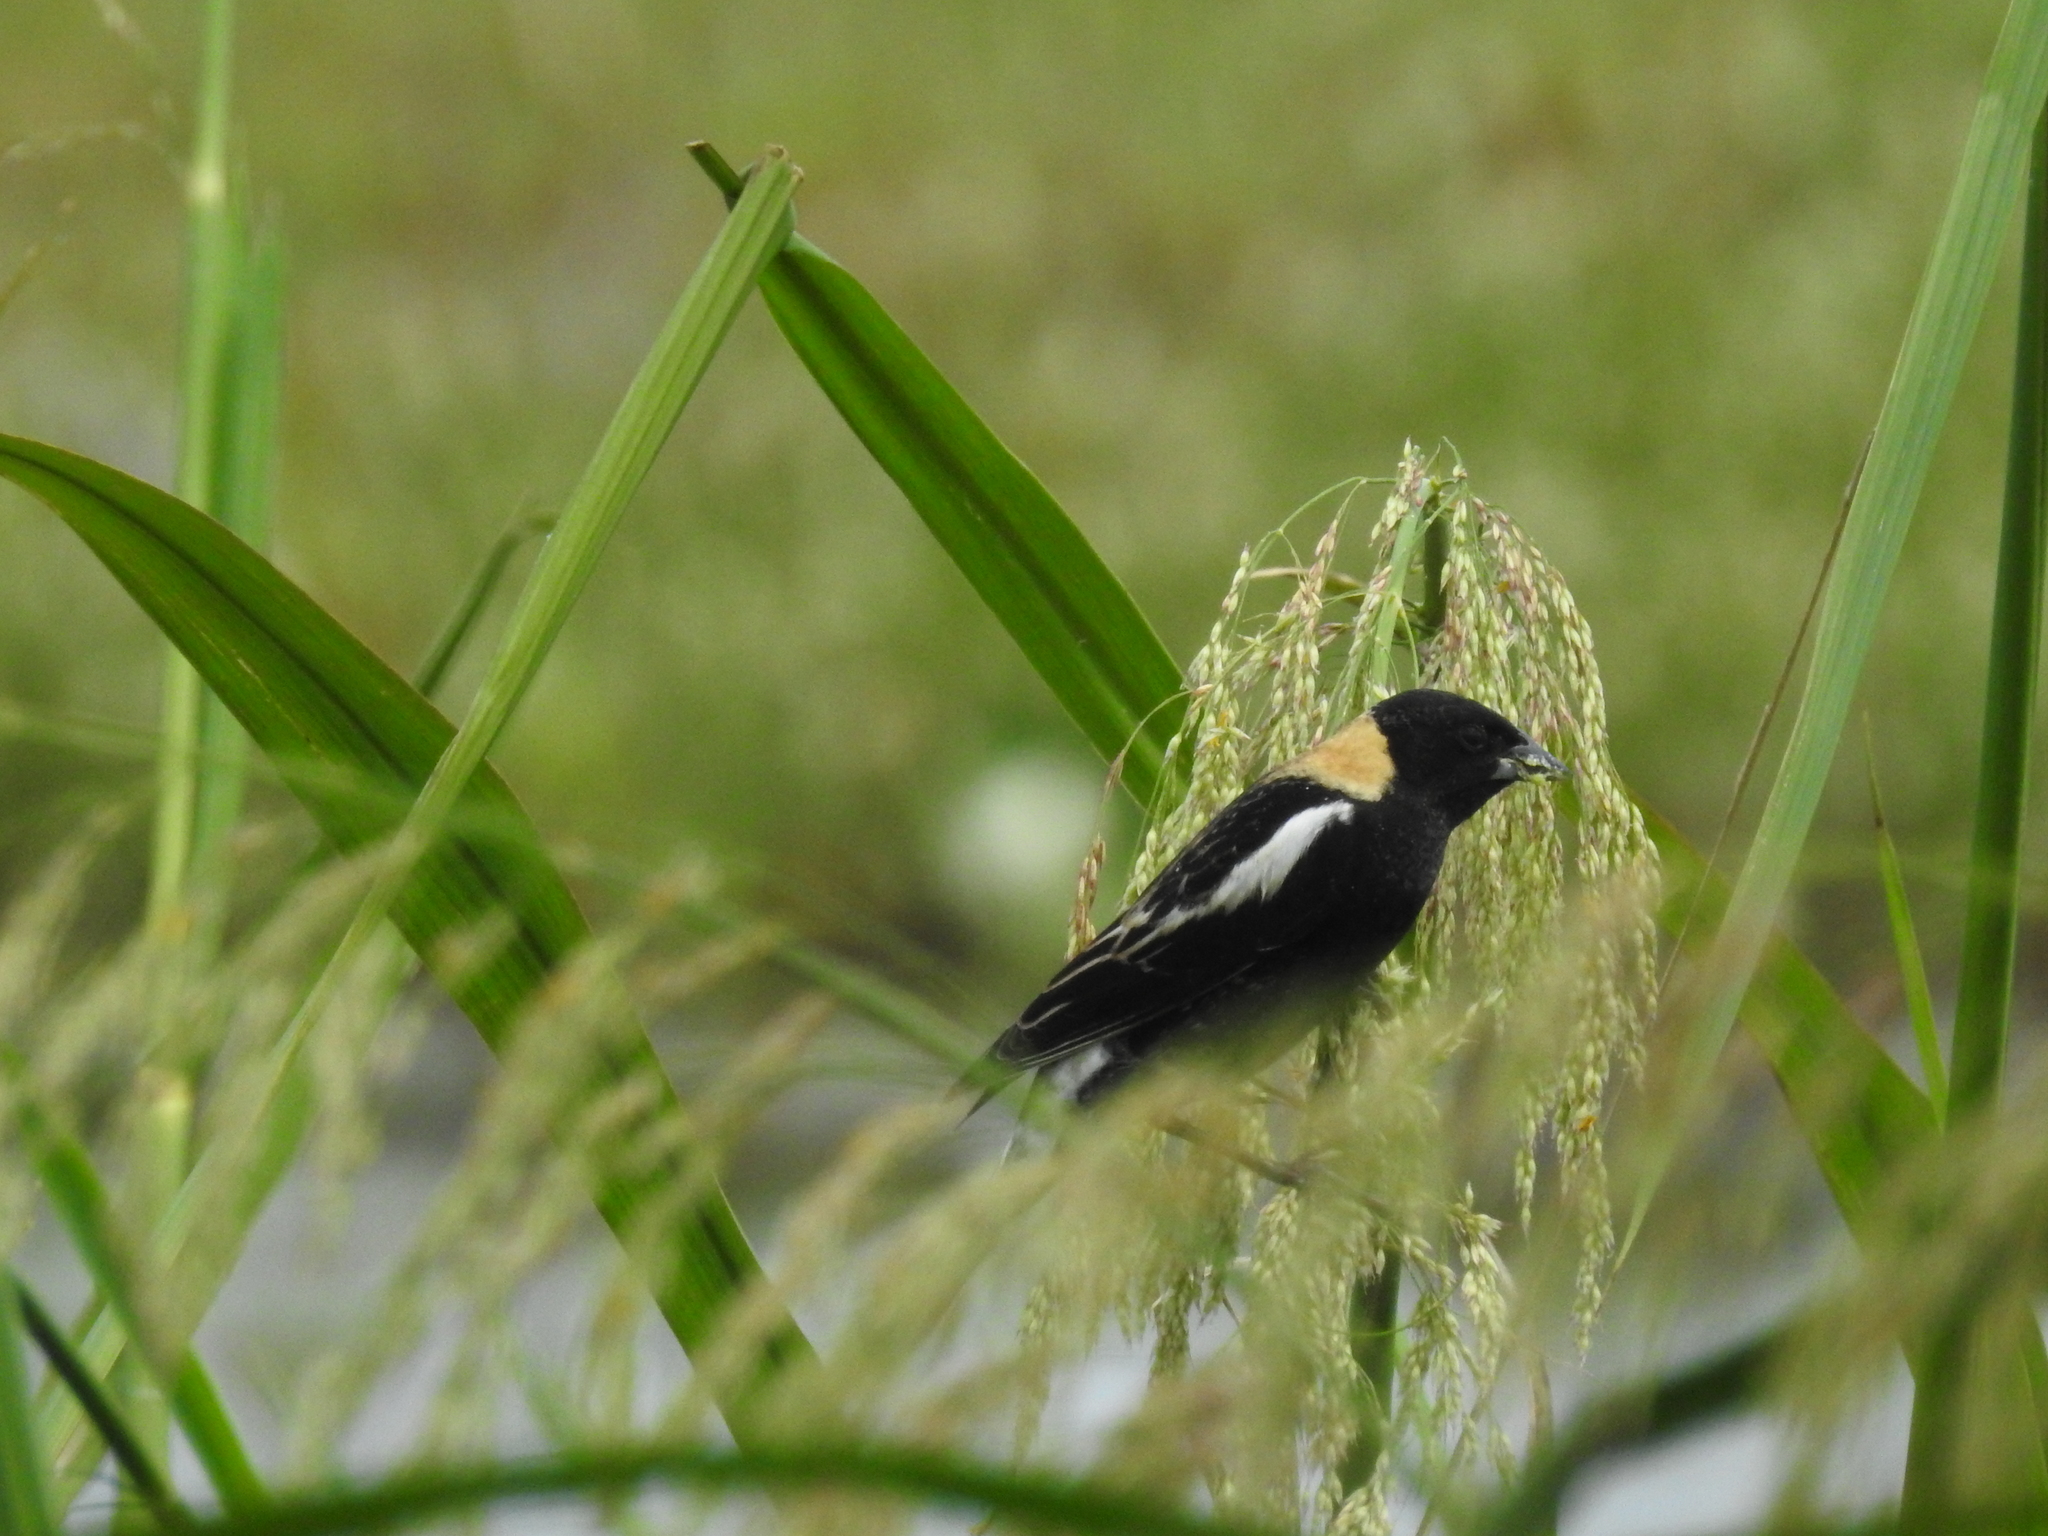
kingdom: Animalia
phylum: Chordata
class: Aves
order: Passeriformes
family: Icteridae
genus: Dolichonyx
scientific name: Dolichonyx oryzivorus
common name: Bobolink
